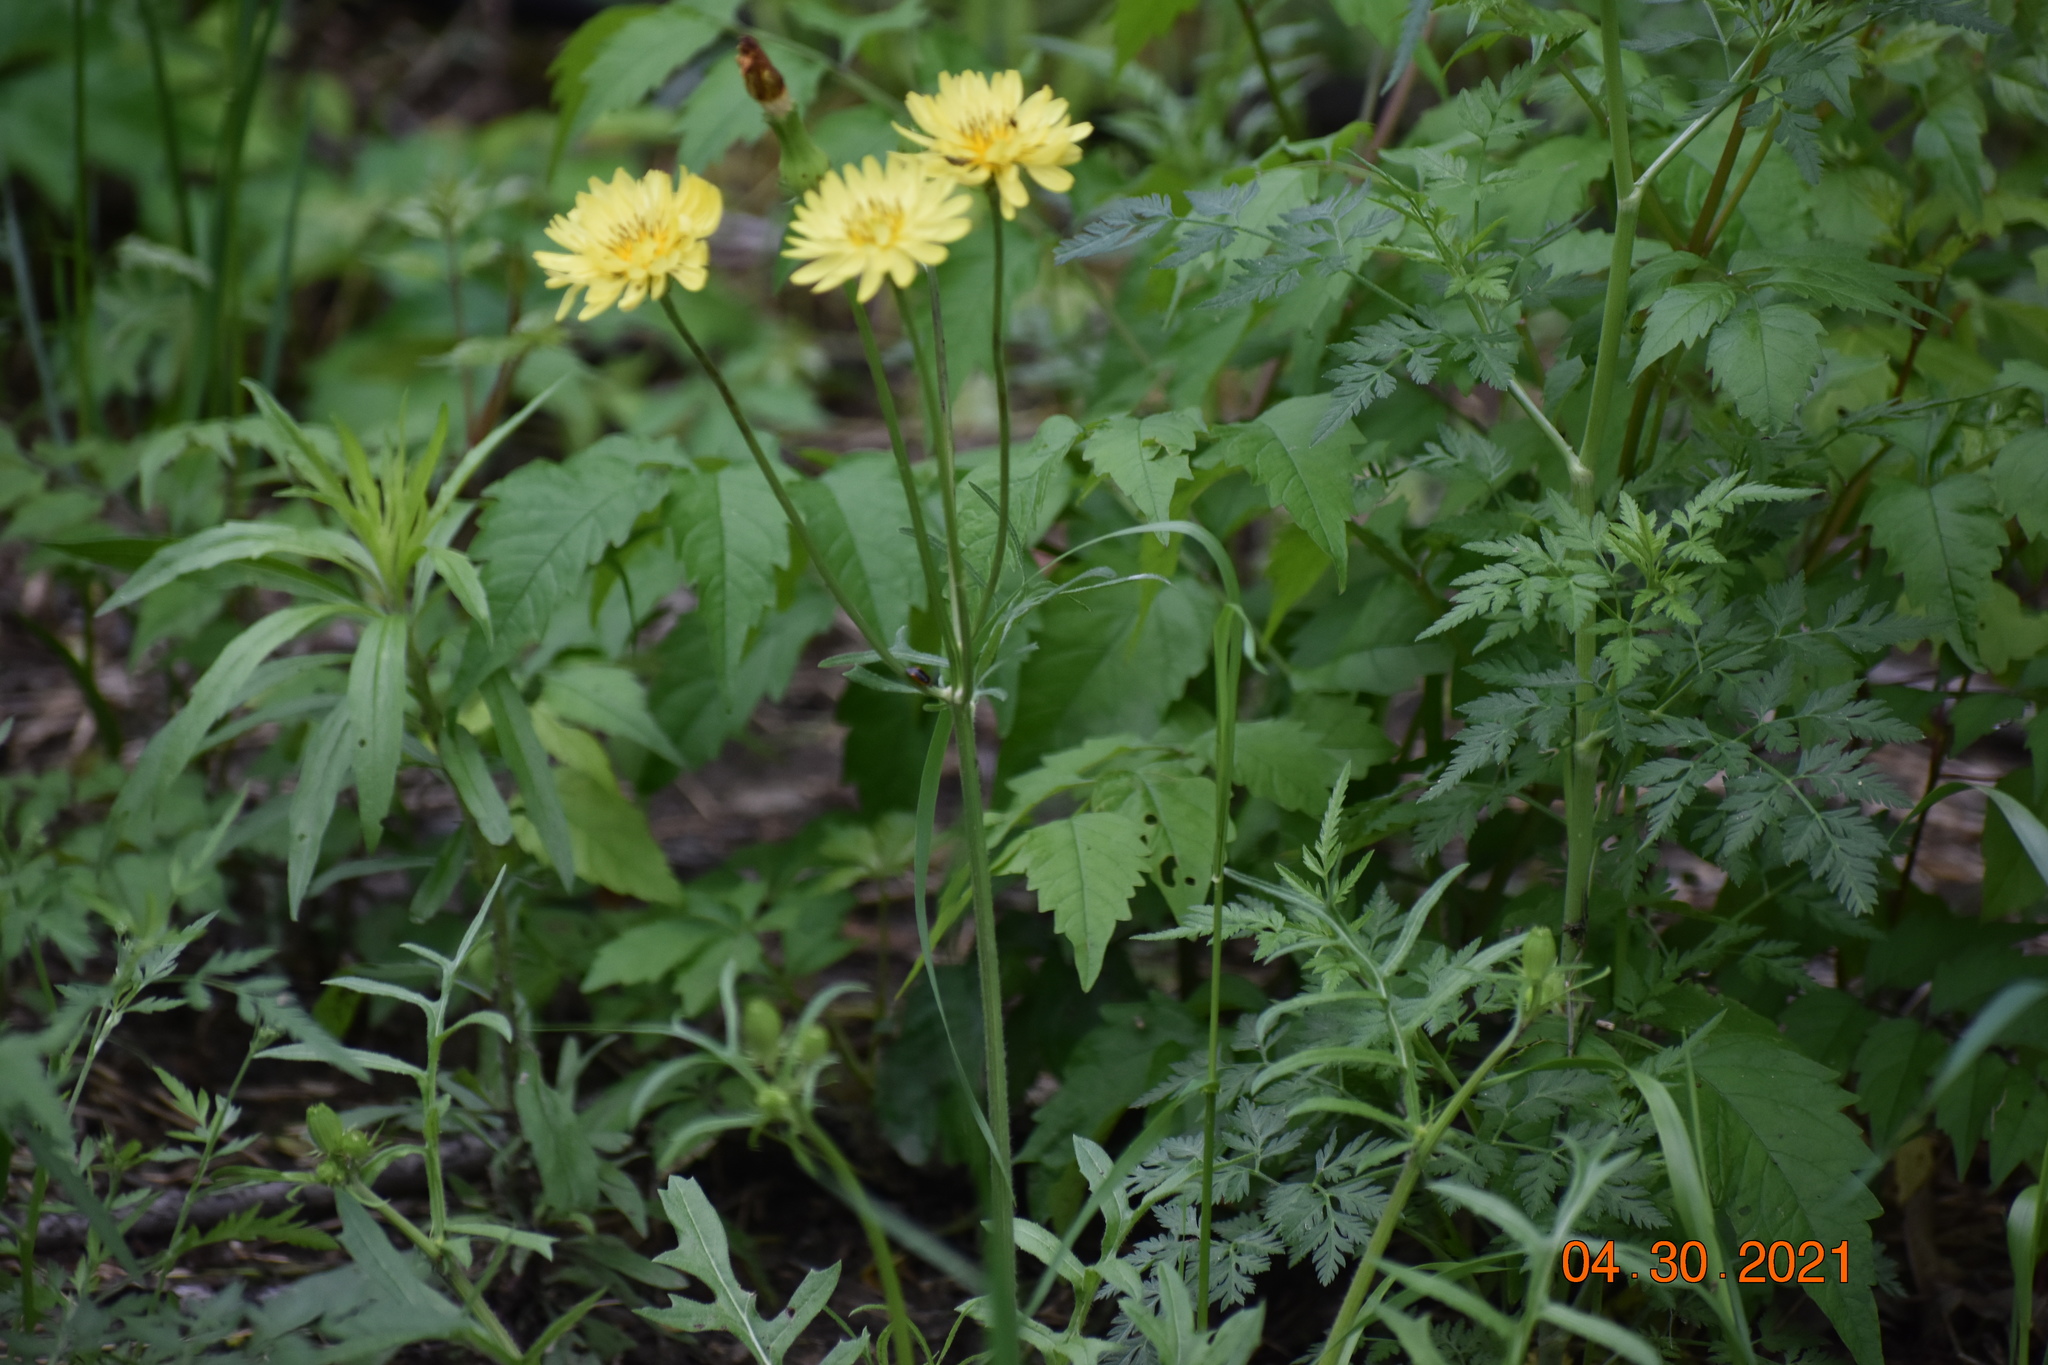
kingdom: Plantae
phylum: Tracheophyta
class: Magnoliopsida
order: Asterales
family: Asteraceae
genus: Pyrrhopappus
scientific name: Pyrrhopappus pauciflorus
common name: Texas false dandelion
